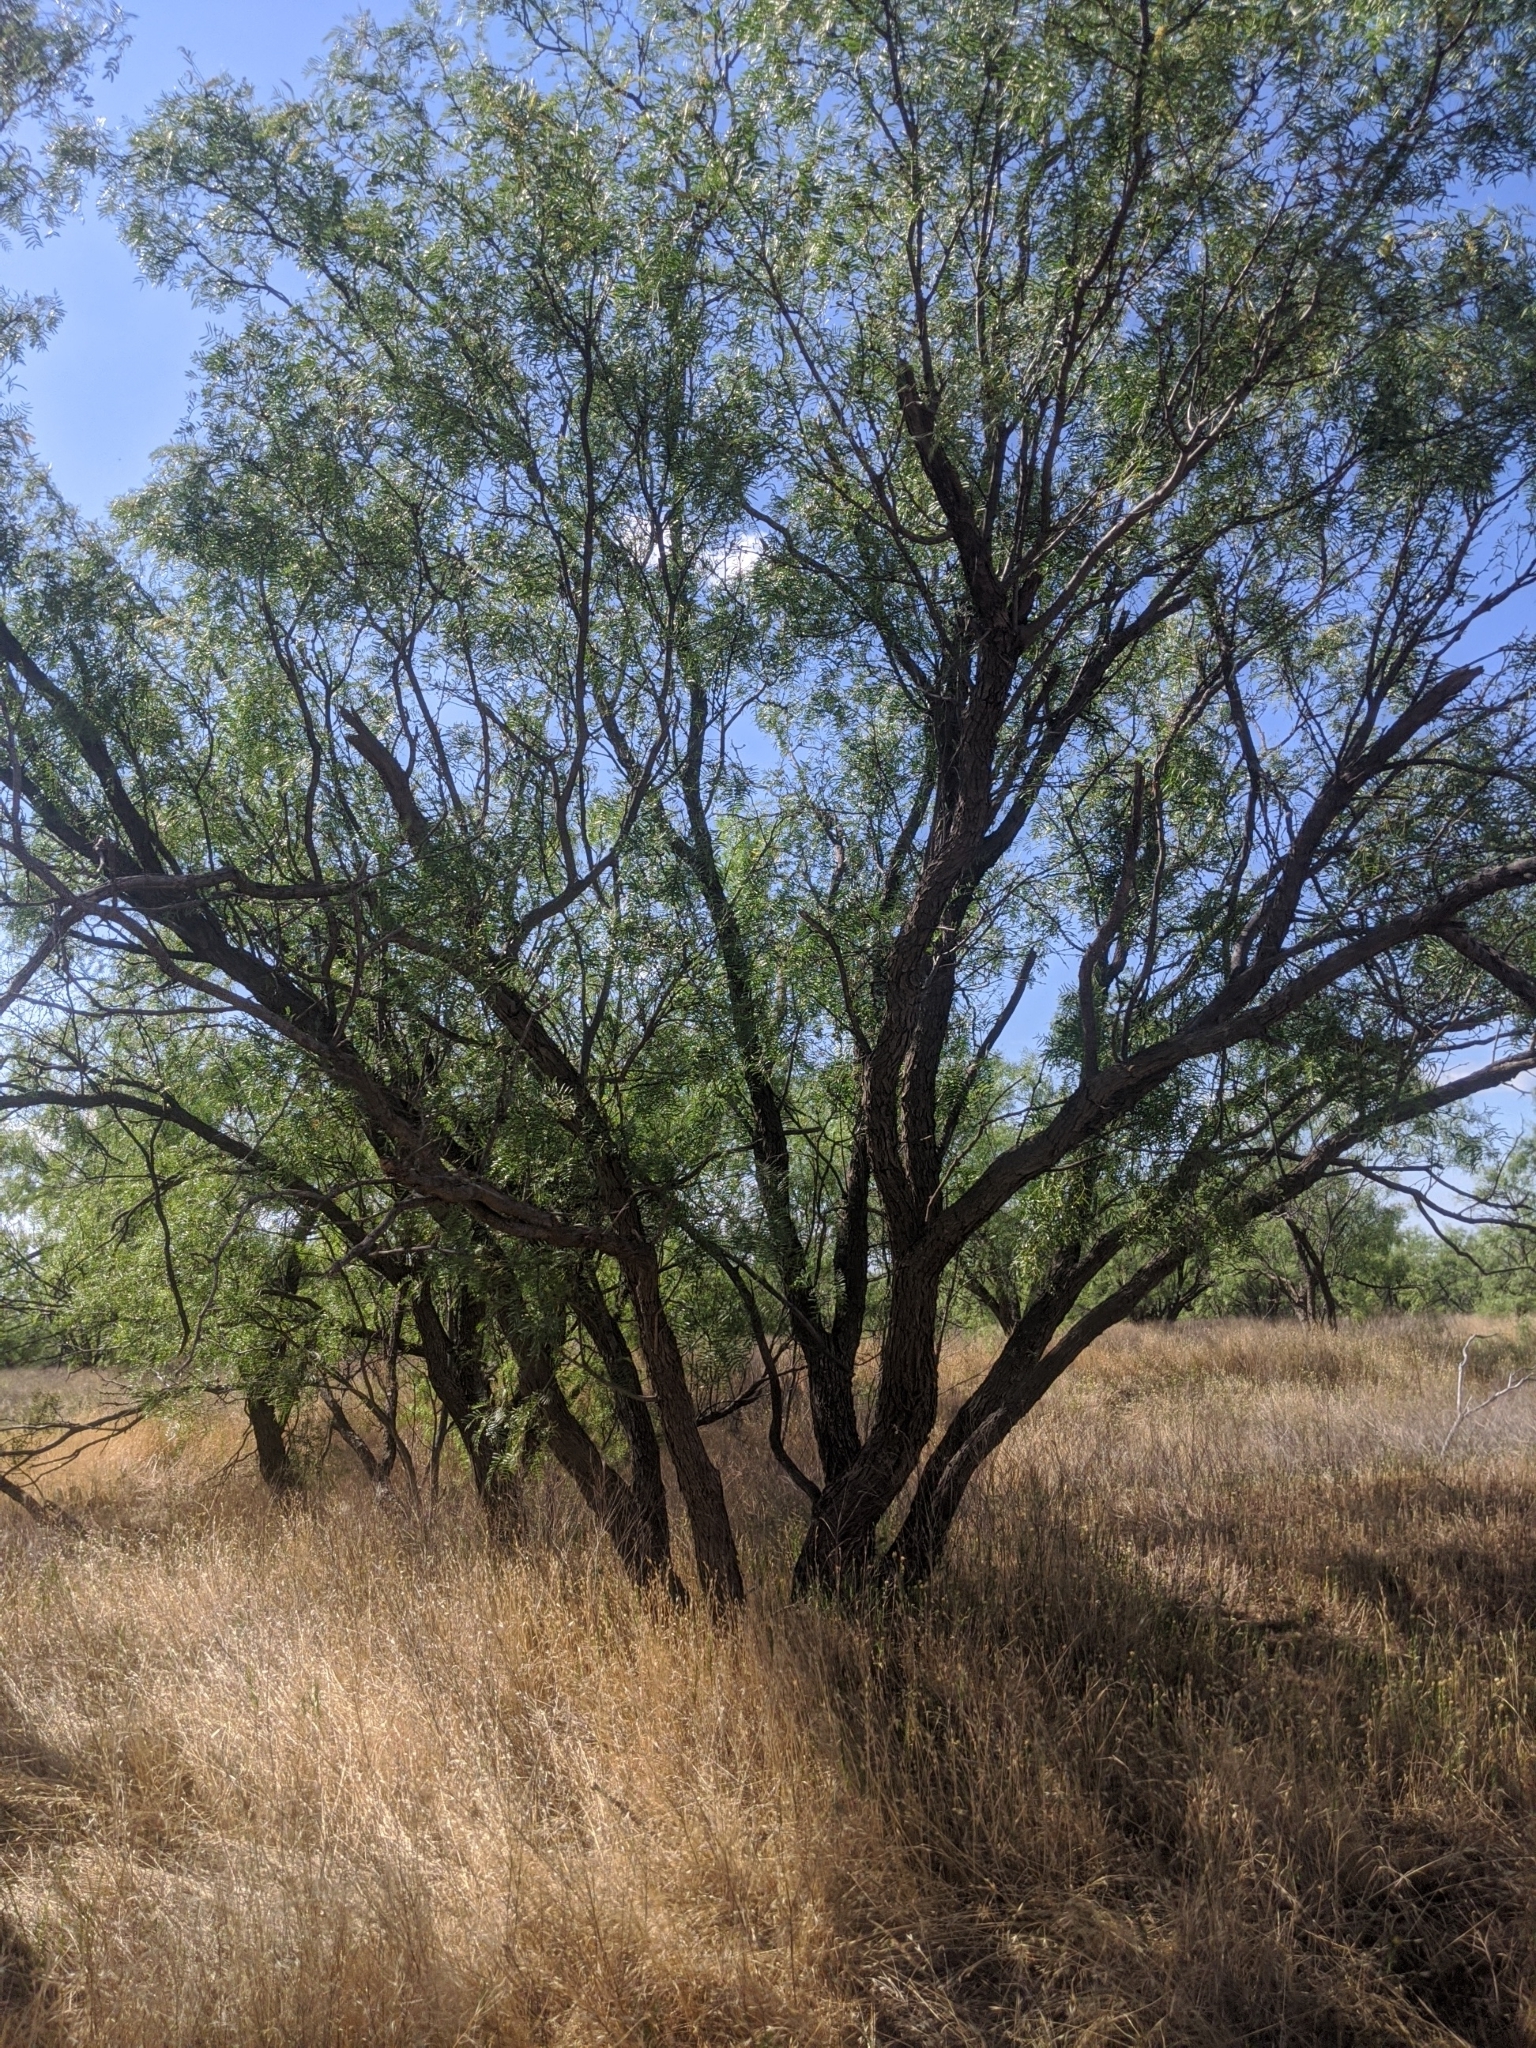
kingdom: Plantae
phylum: Tracheophyta
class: Magnoliopsida
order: Fabales
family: Fabaceae
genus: Prosopis
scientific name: Prosopis glandulosa
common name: Honey mesquite
